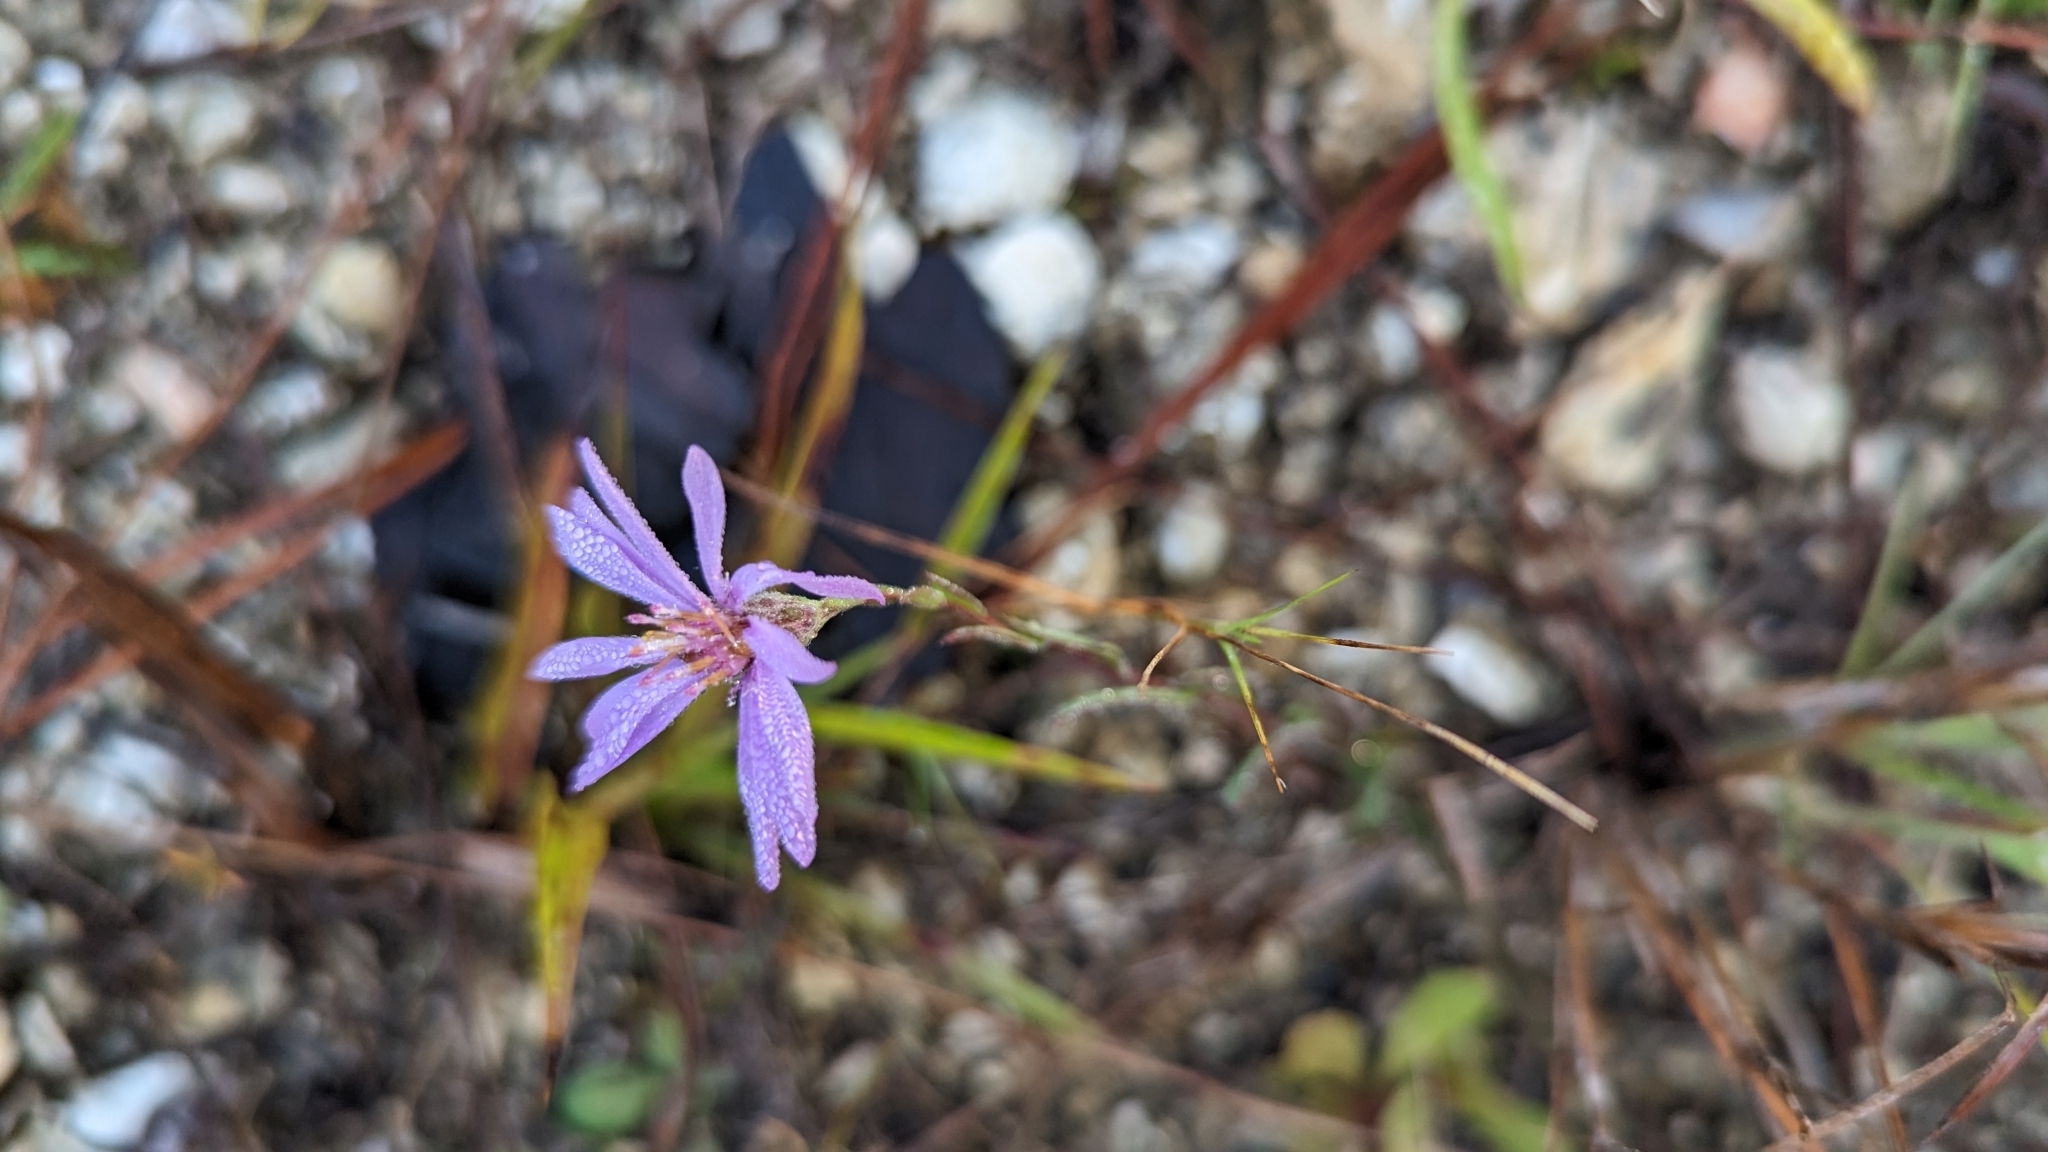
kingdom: Plantae
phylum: Tracheophyta
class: Magnoliopsida
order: Asterales
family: Asteraceae
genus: Symphyotrichum
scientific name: Symphyotrichum concolor
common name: Eastern silver aster
